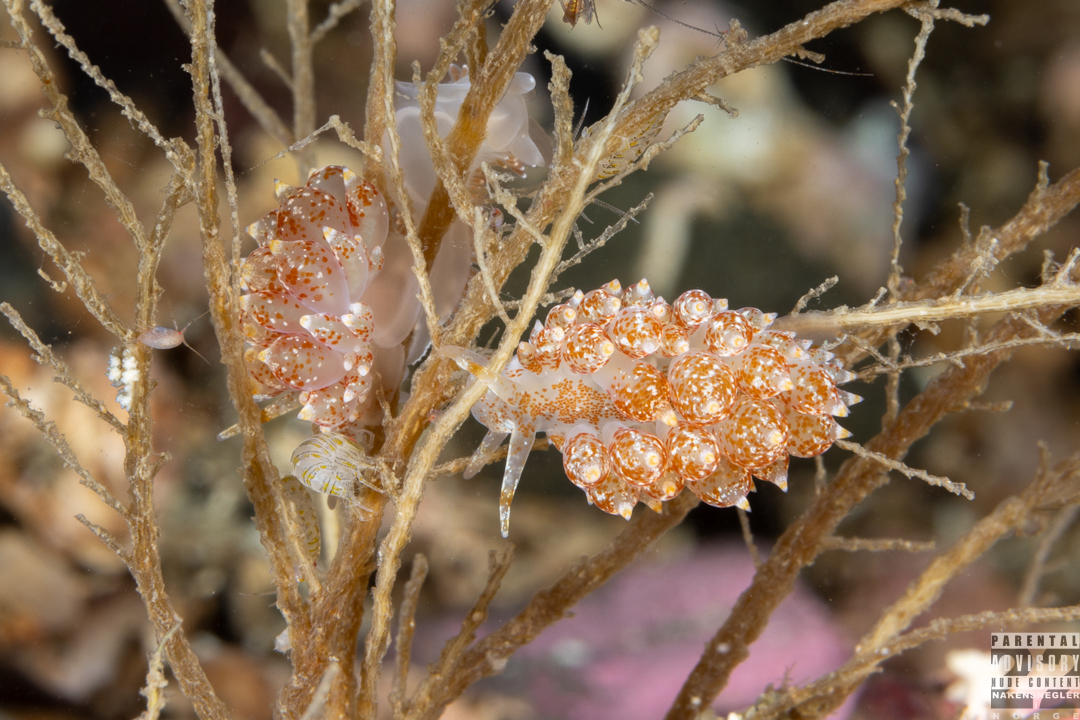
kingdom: Animalia
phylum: Mollusca
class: Gastropoda
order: Nudibranchia
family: Eubranchidae
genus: Amphorina
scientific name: Amphorina pallida
